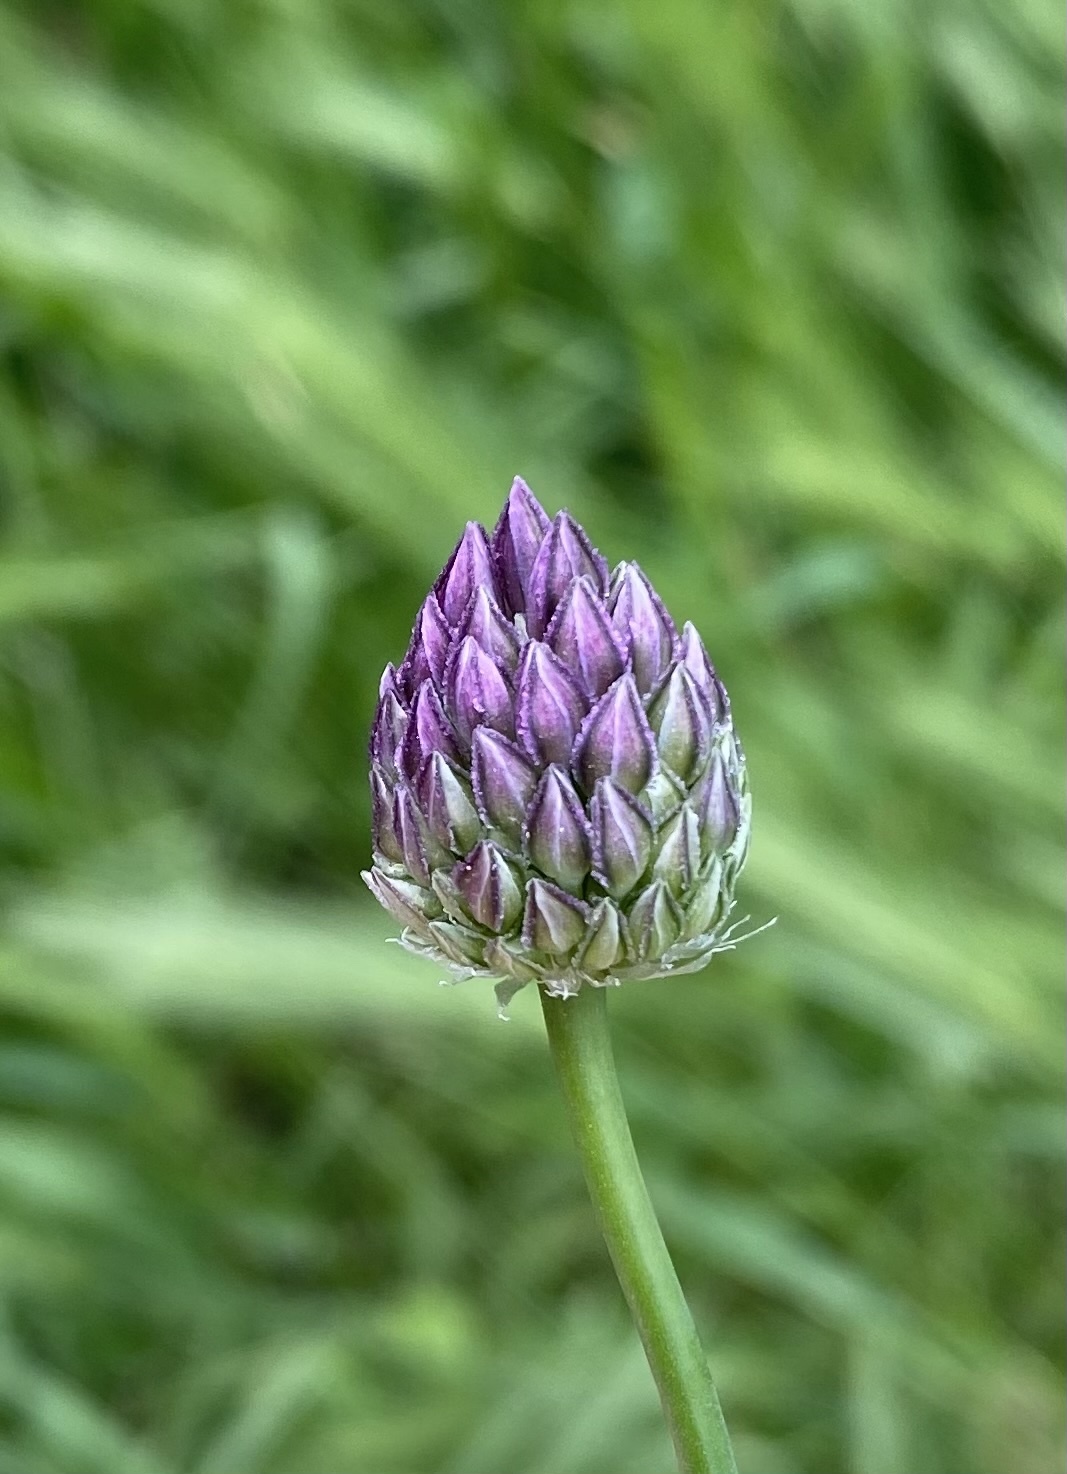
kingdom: Plantae
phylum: Tracheophyta
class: Liliopsida
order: Asparagales
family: Amaryllidaceae
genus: Allium
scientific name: Allium rotundum
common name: Sand leek
